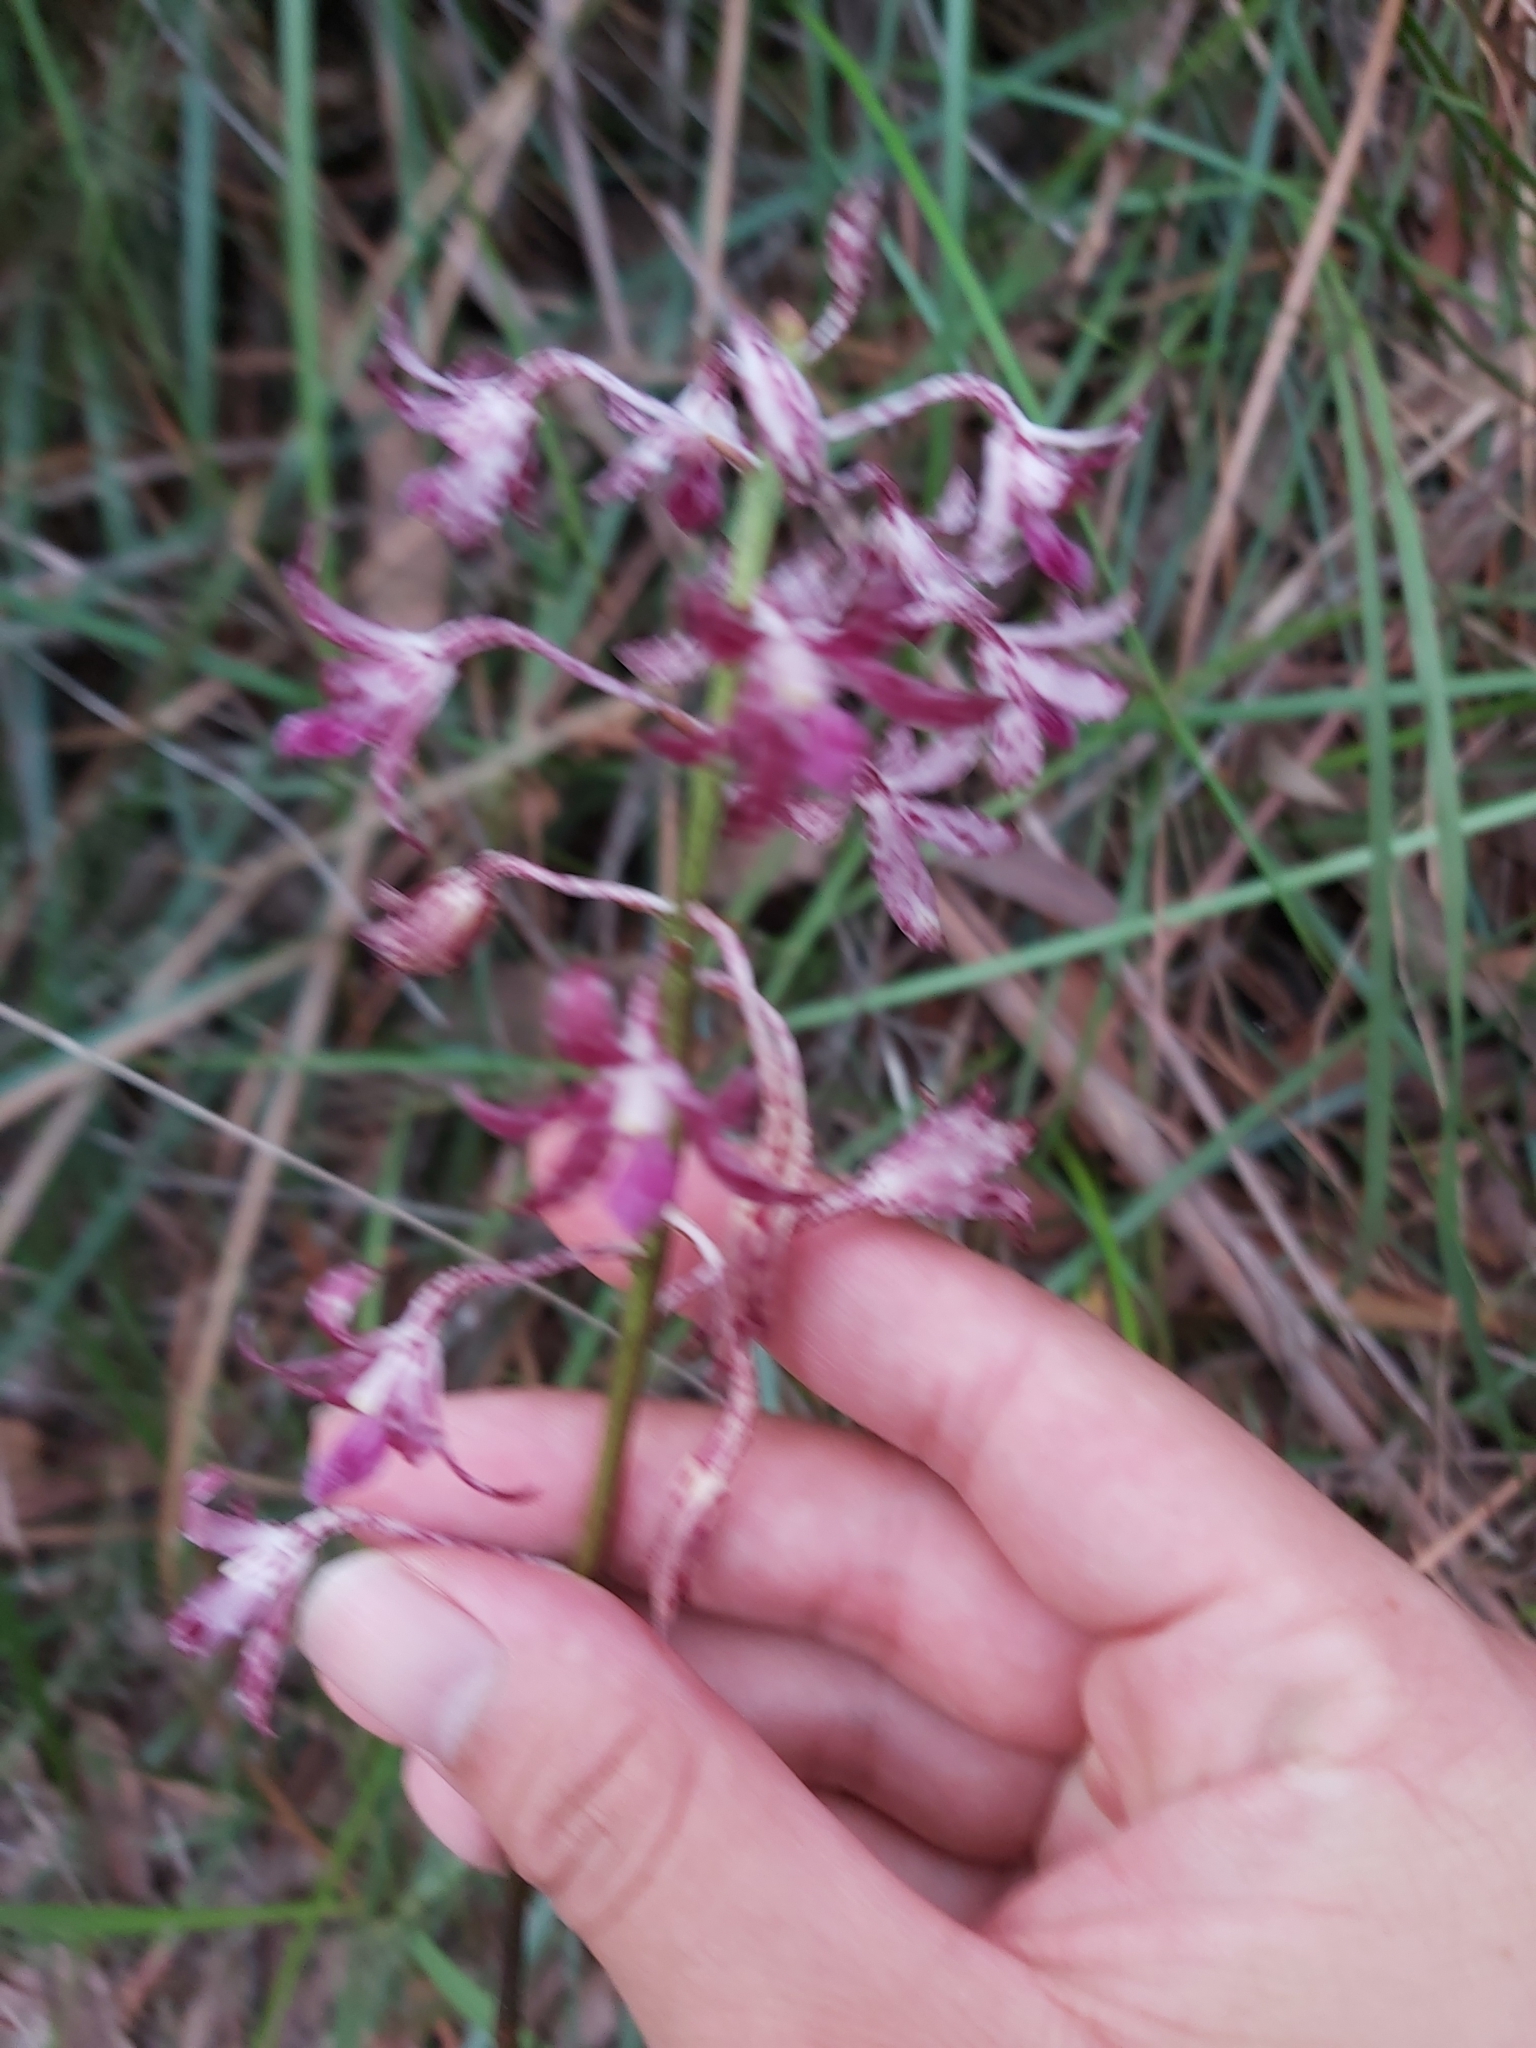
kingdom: Plantae
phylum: Tracheophyta
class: Liliopsida
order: Asparagales
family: Orchidaceae
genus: Dipodium
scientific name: Dipodium variegatum
